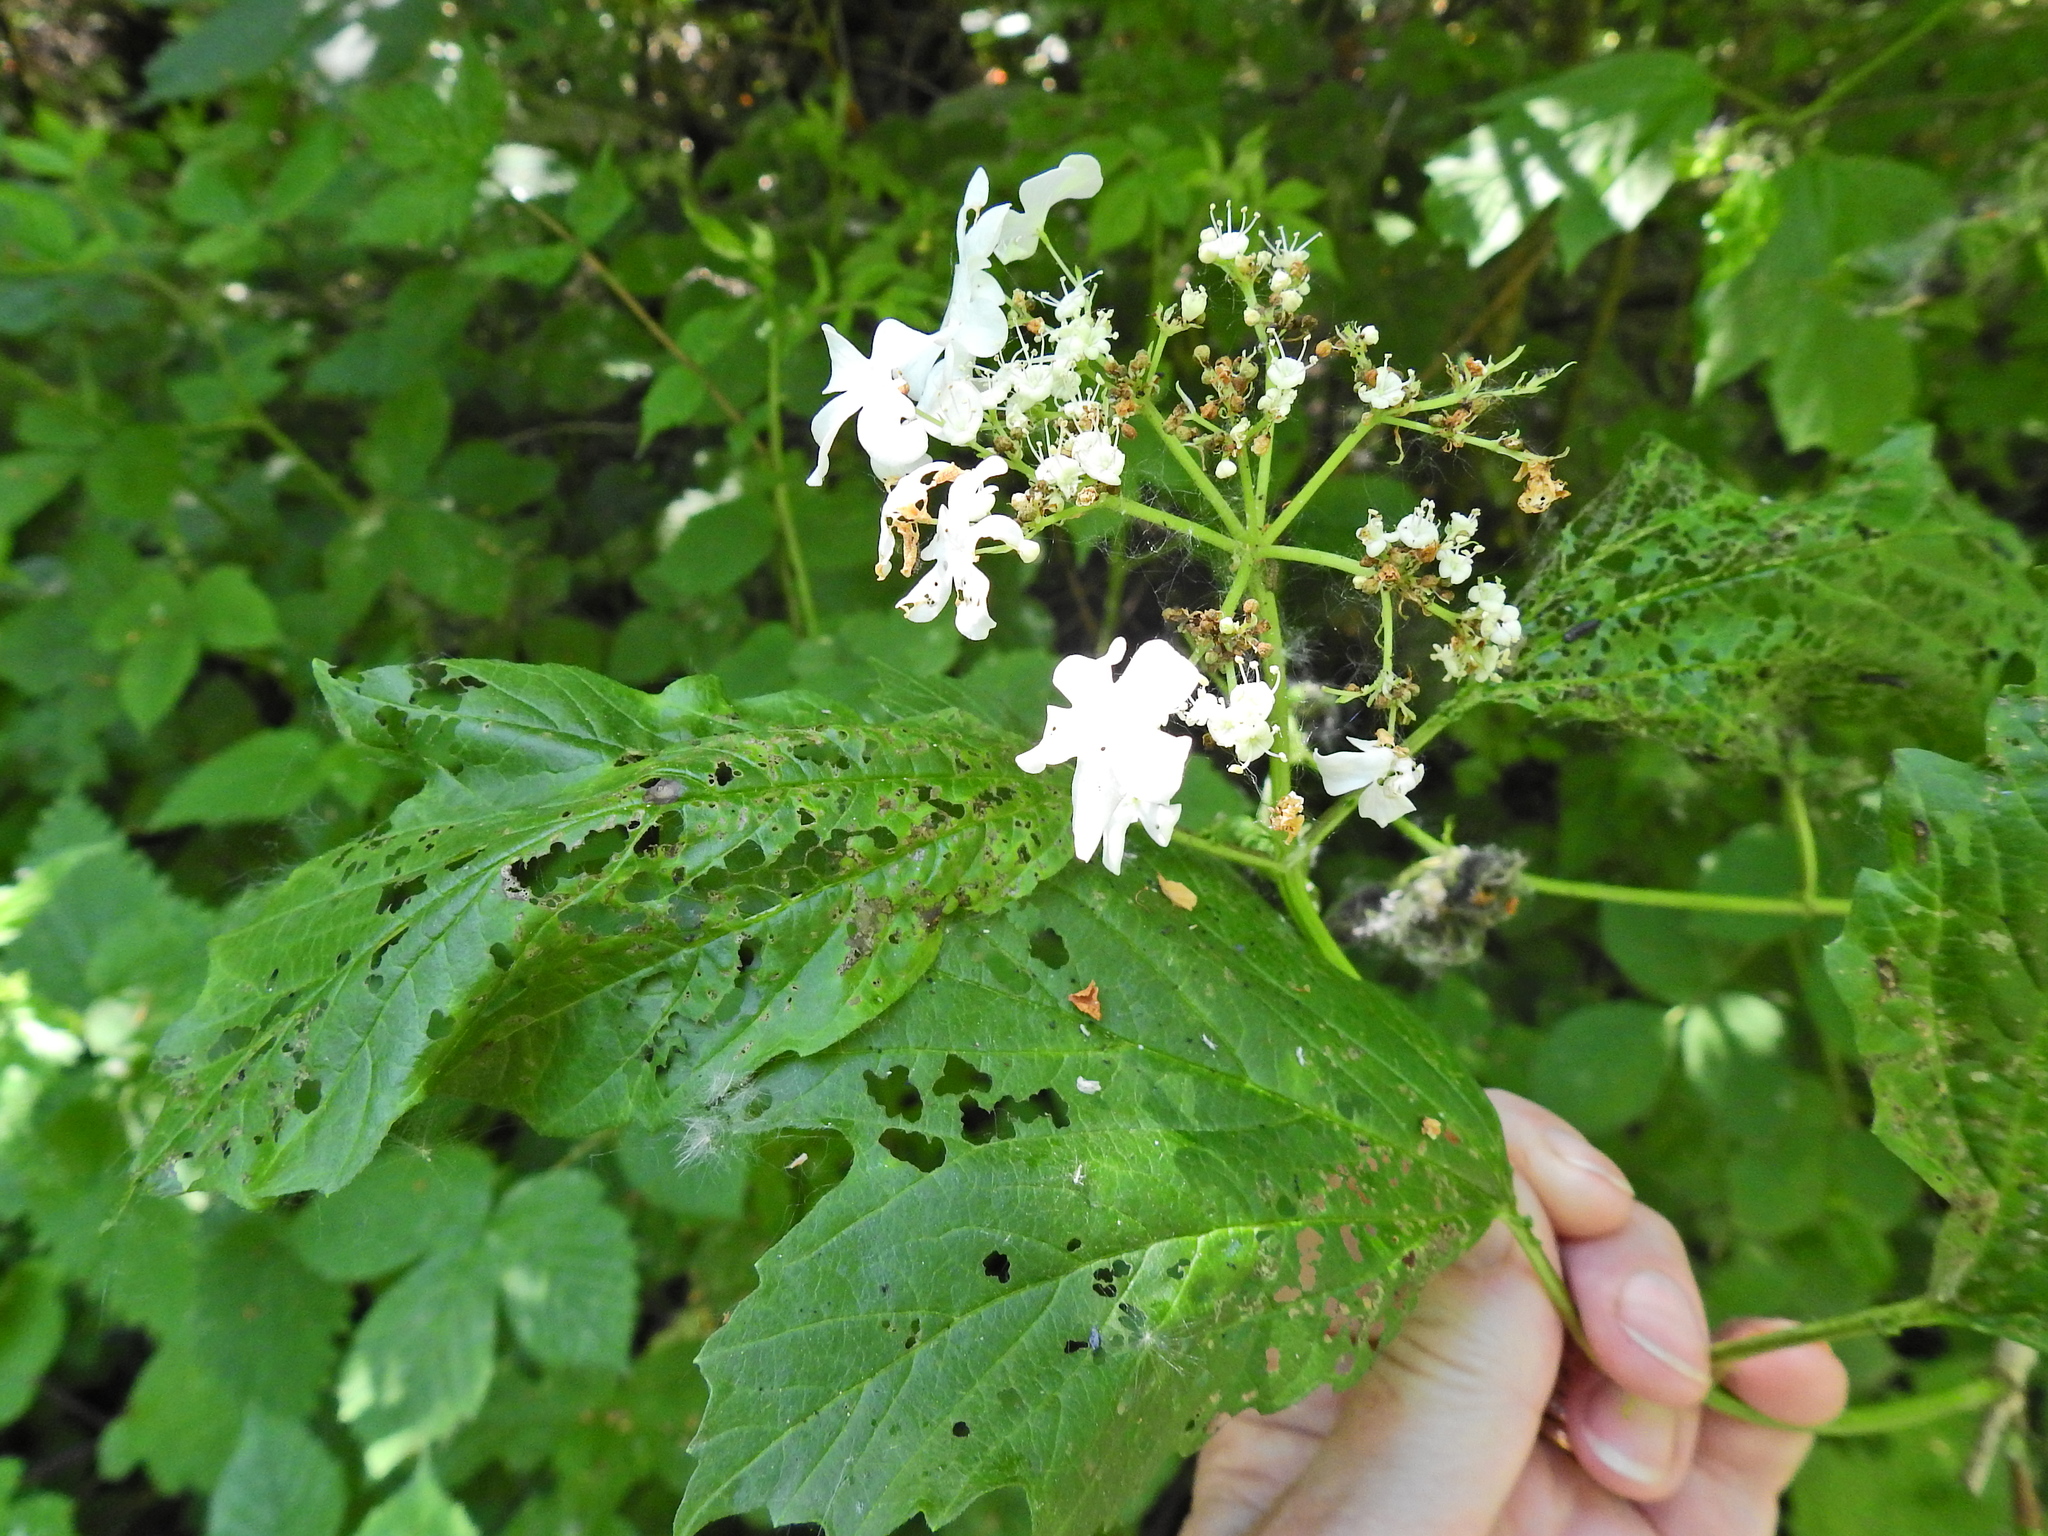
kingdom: Plantae
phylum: Tracheophyta
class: Magnoliopsida
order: Dipsacales
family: Viburnaceae
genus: Viburnum
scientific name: Viburnum opulus
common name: Guelder-rose
